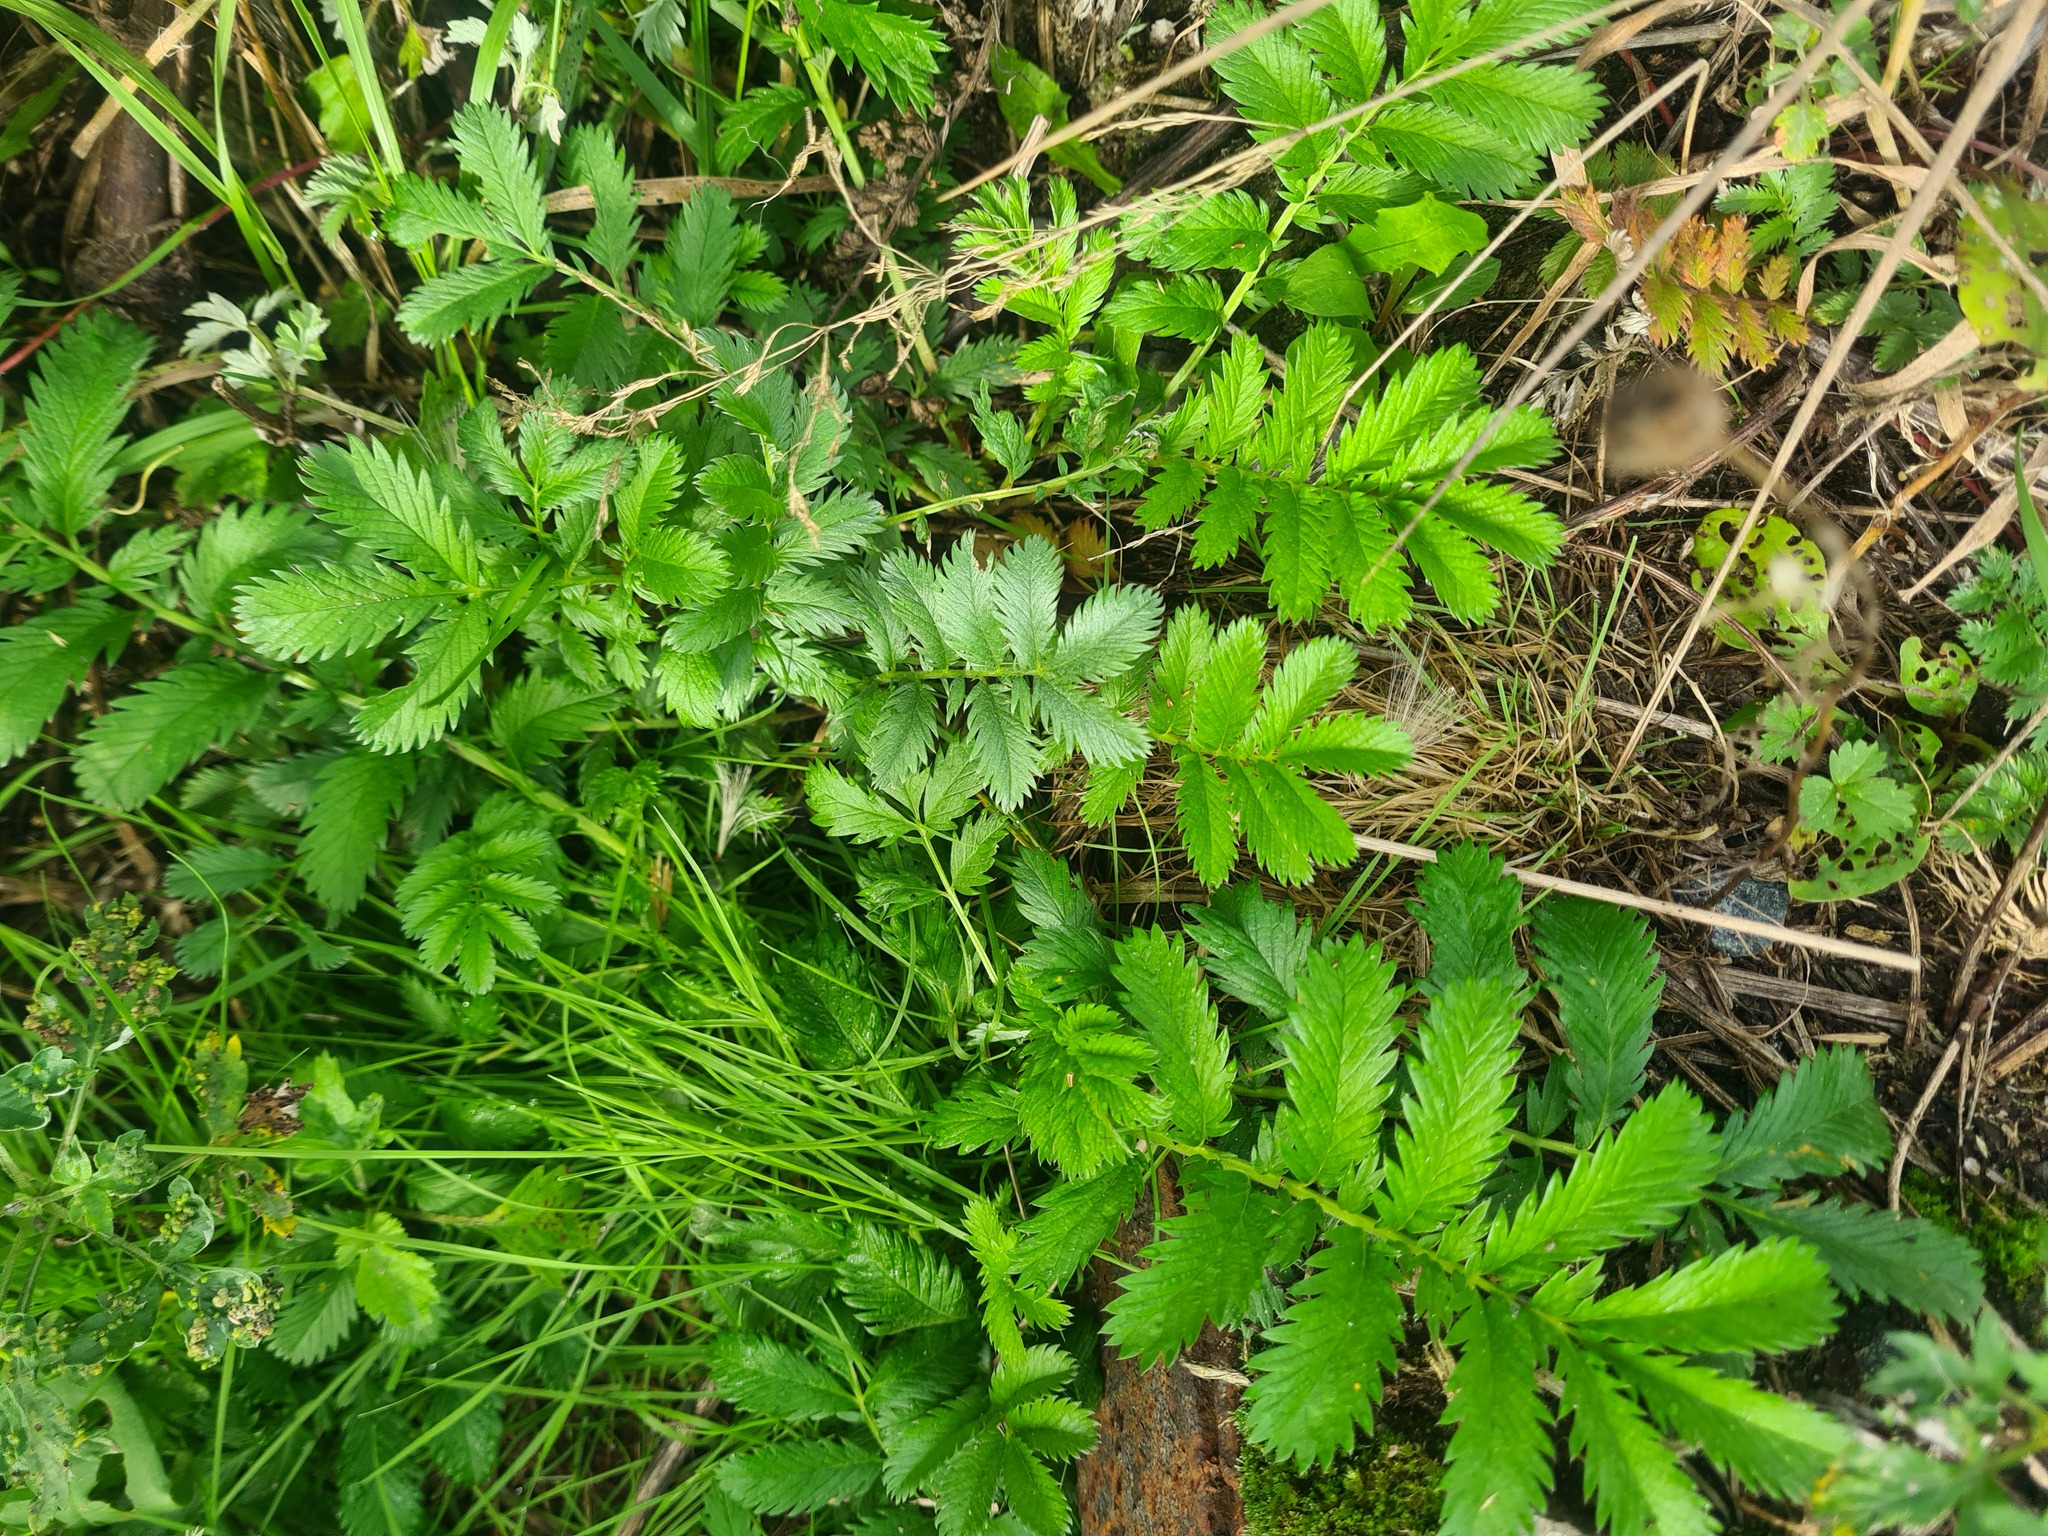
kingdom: Plantae
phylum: Tracheophyta
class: Magnoliopsida
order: Rosales
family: Rosaceae
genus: Argentina
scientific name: Argentina anserina
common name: Common silverweed
